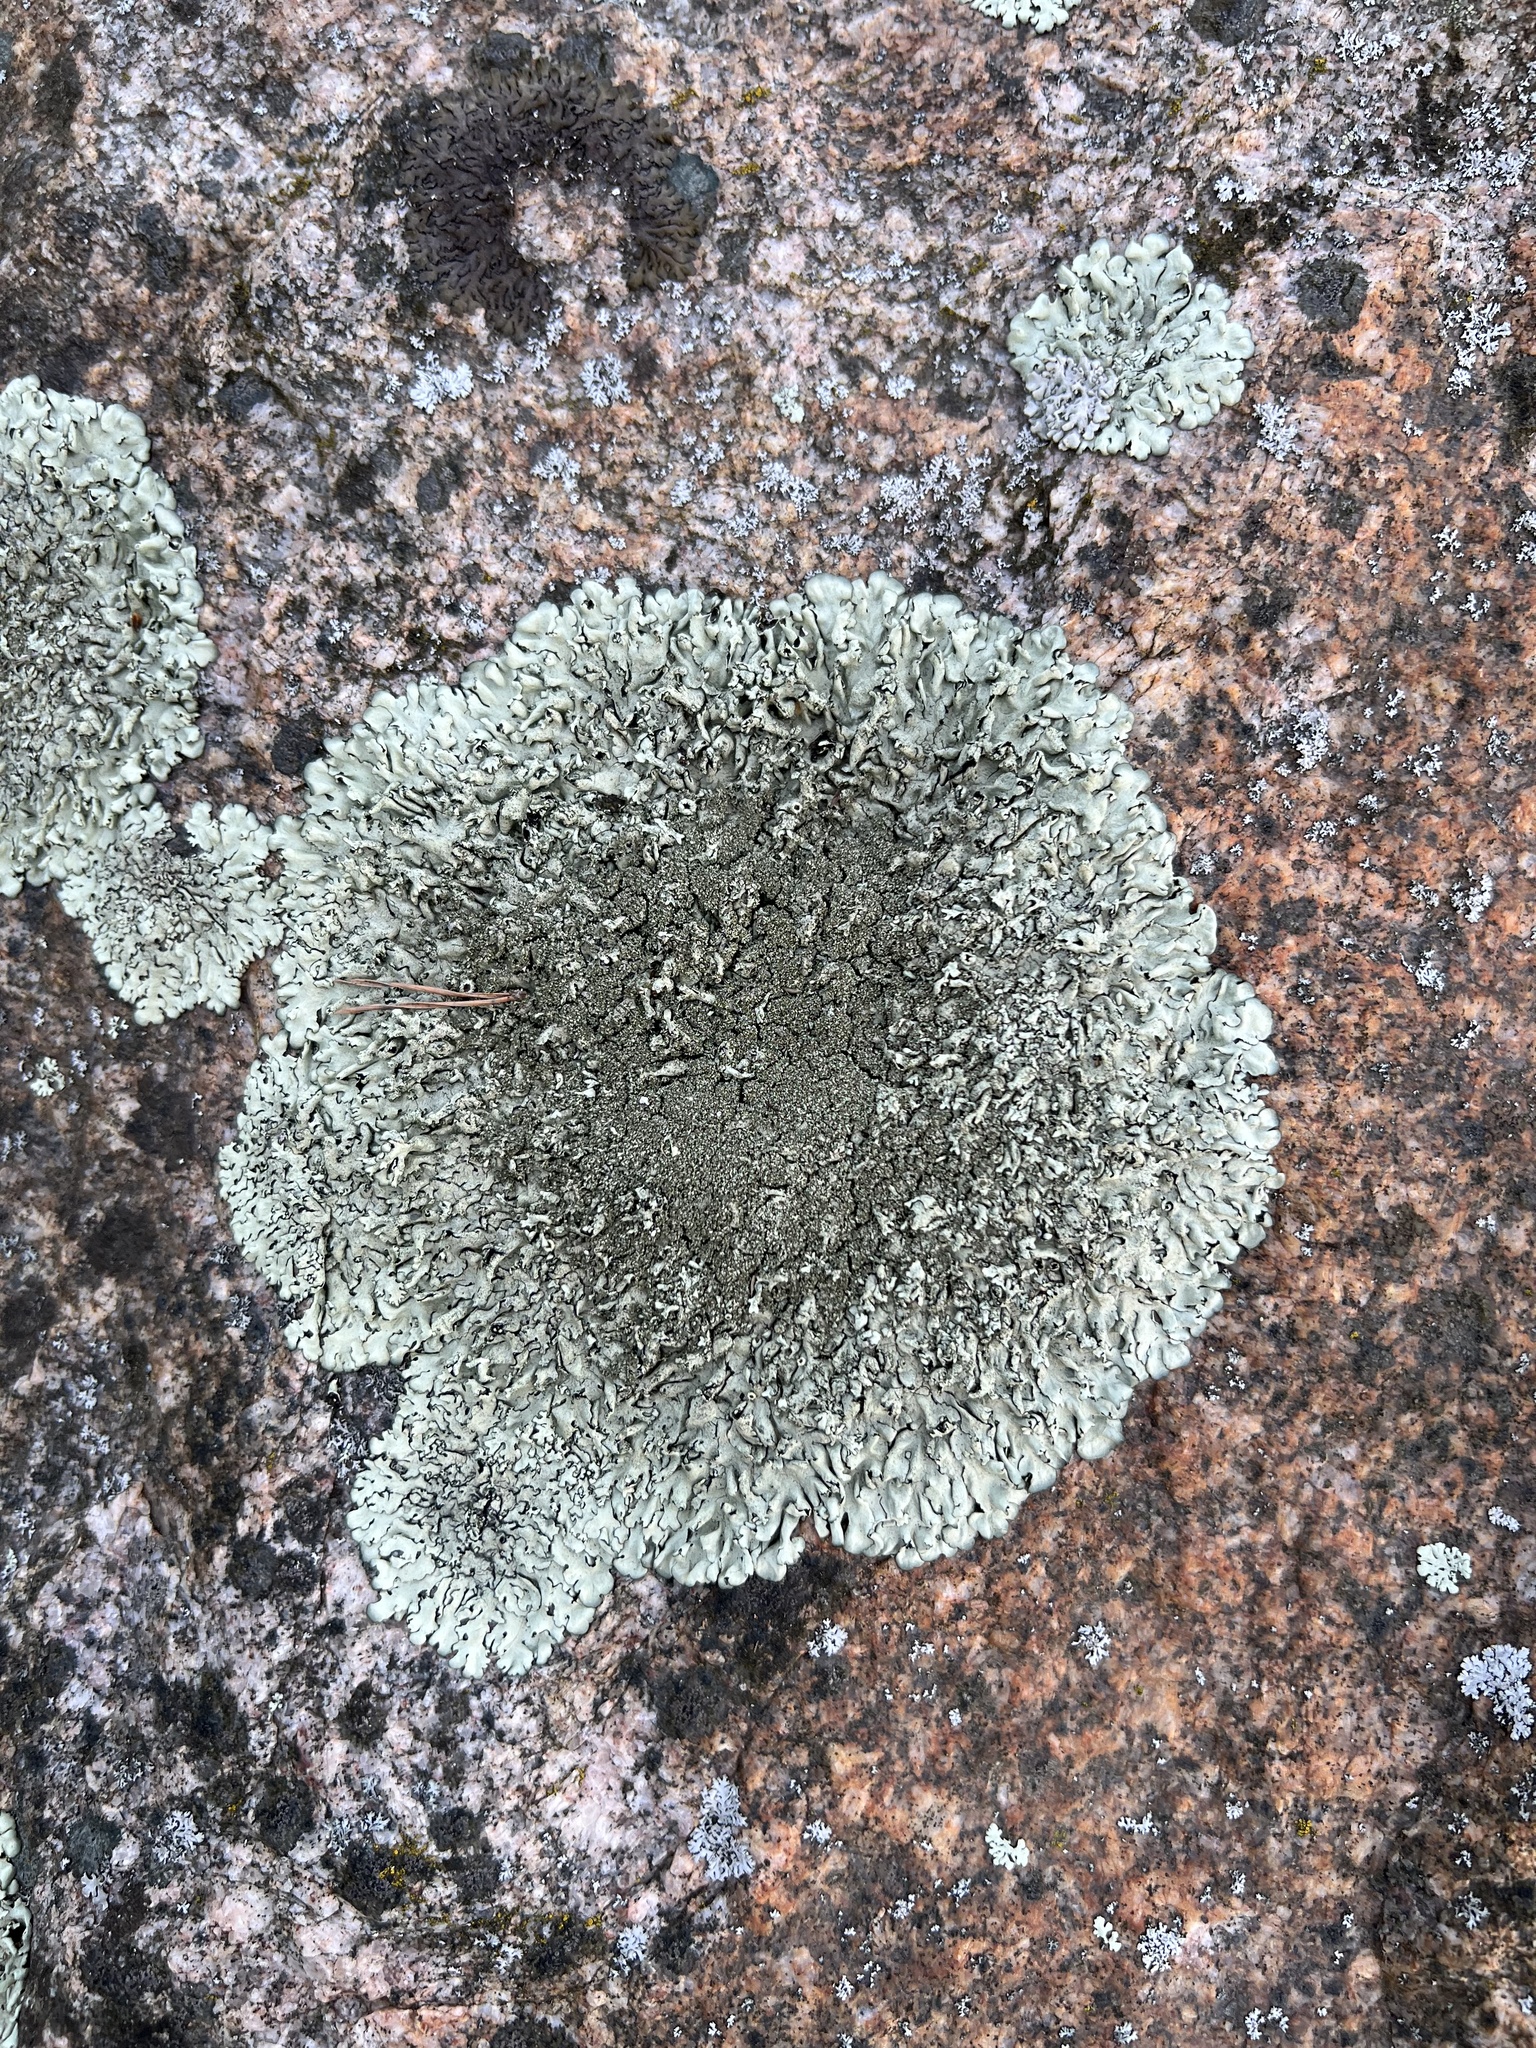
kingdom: Fungi
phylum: Ascomycota
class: Lecanoromycetes
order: Lecanorales
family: Parmeliaceae
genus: Xanthoparmelia
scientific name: Xanthoparmelia conspersa
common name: Peppered rock shield
